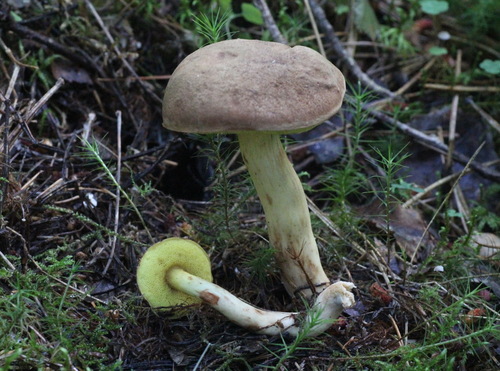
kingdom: Fungi
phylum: Basidiomycota
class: Agaricomycetes
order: Boletales
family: Boletaceae
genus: Xerocomus
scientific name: Xerocomus subtomentosus
